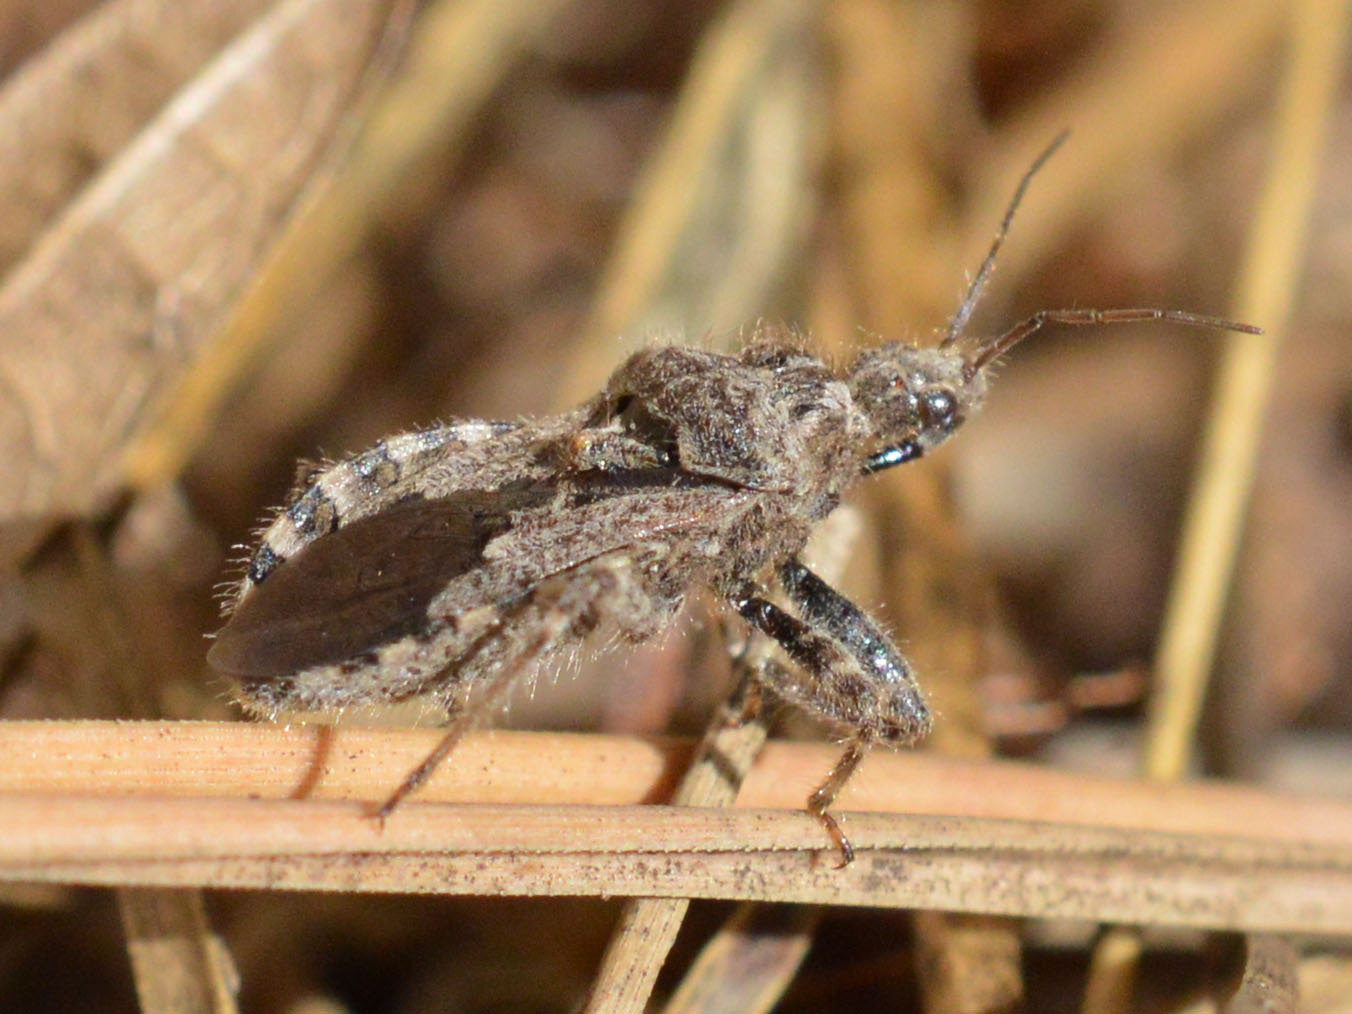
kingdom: Animalia
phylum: Arthropoda
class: Insecta
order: Hemiptera
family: Reduviidae
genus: Coranus
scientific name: Coranus griseus
